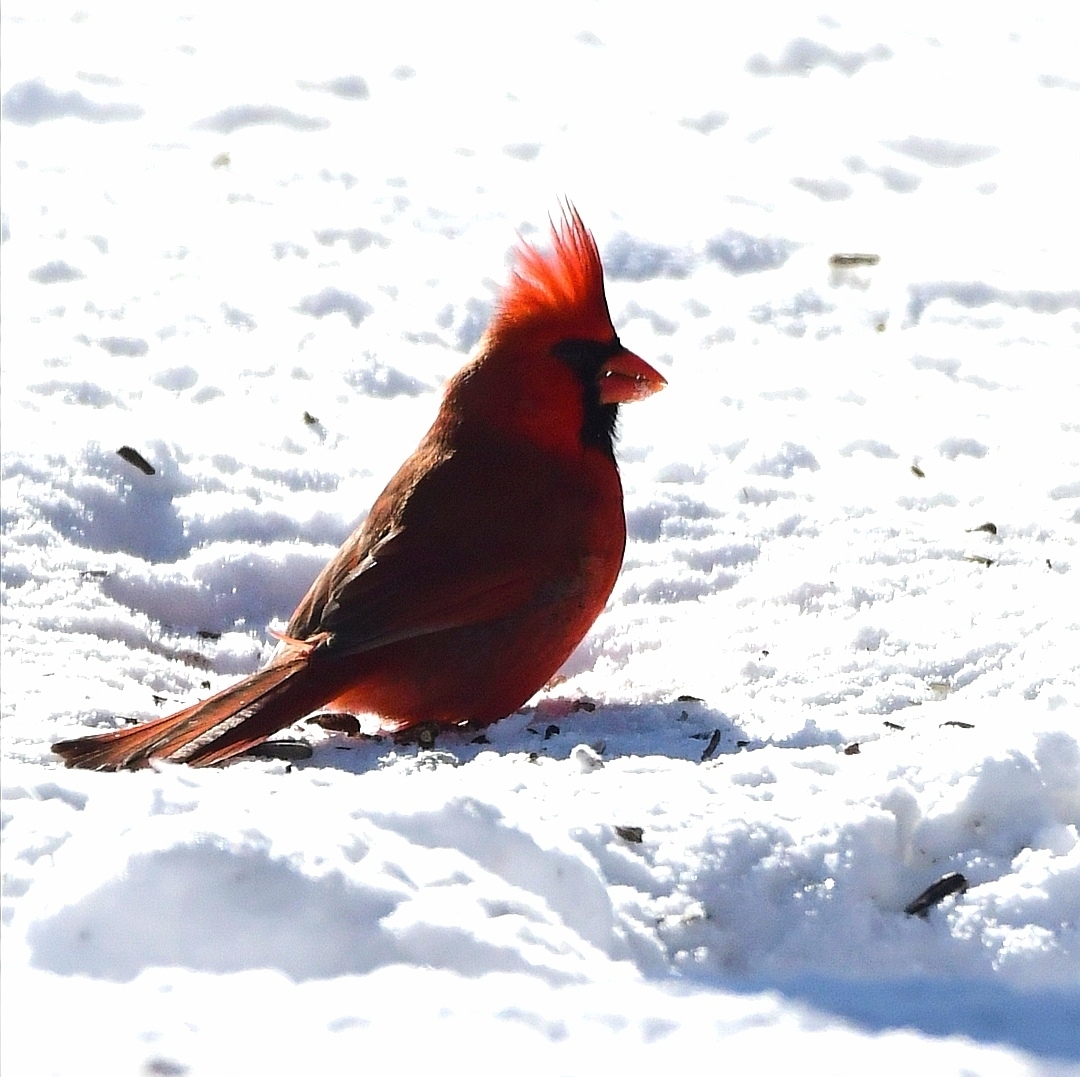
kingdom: Animalia
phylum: Chordata
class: Aves
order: Passeriformes
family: Cardinalidae
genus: Cardinalis
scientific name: Cardinalis cardinalis
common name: Northern cardinal
